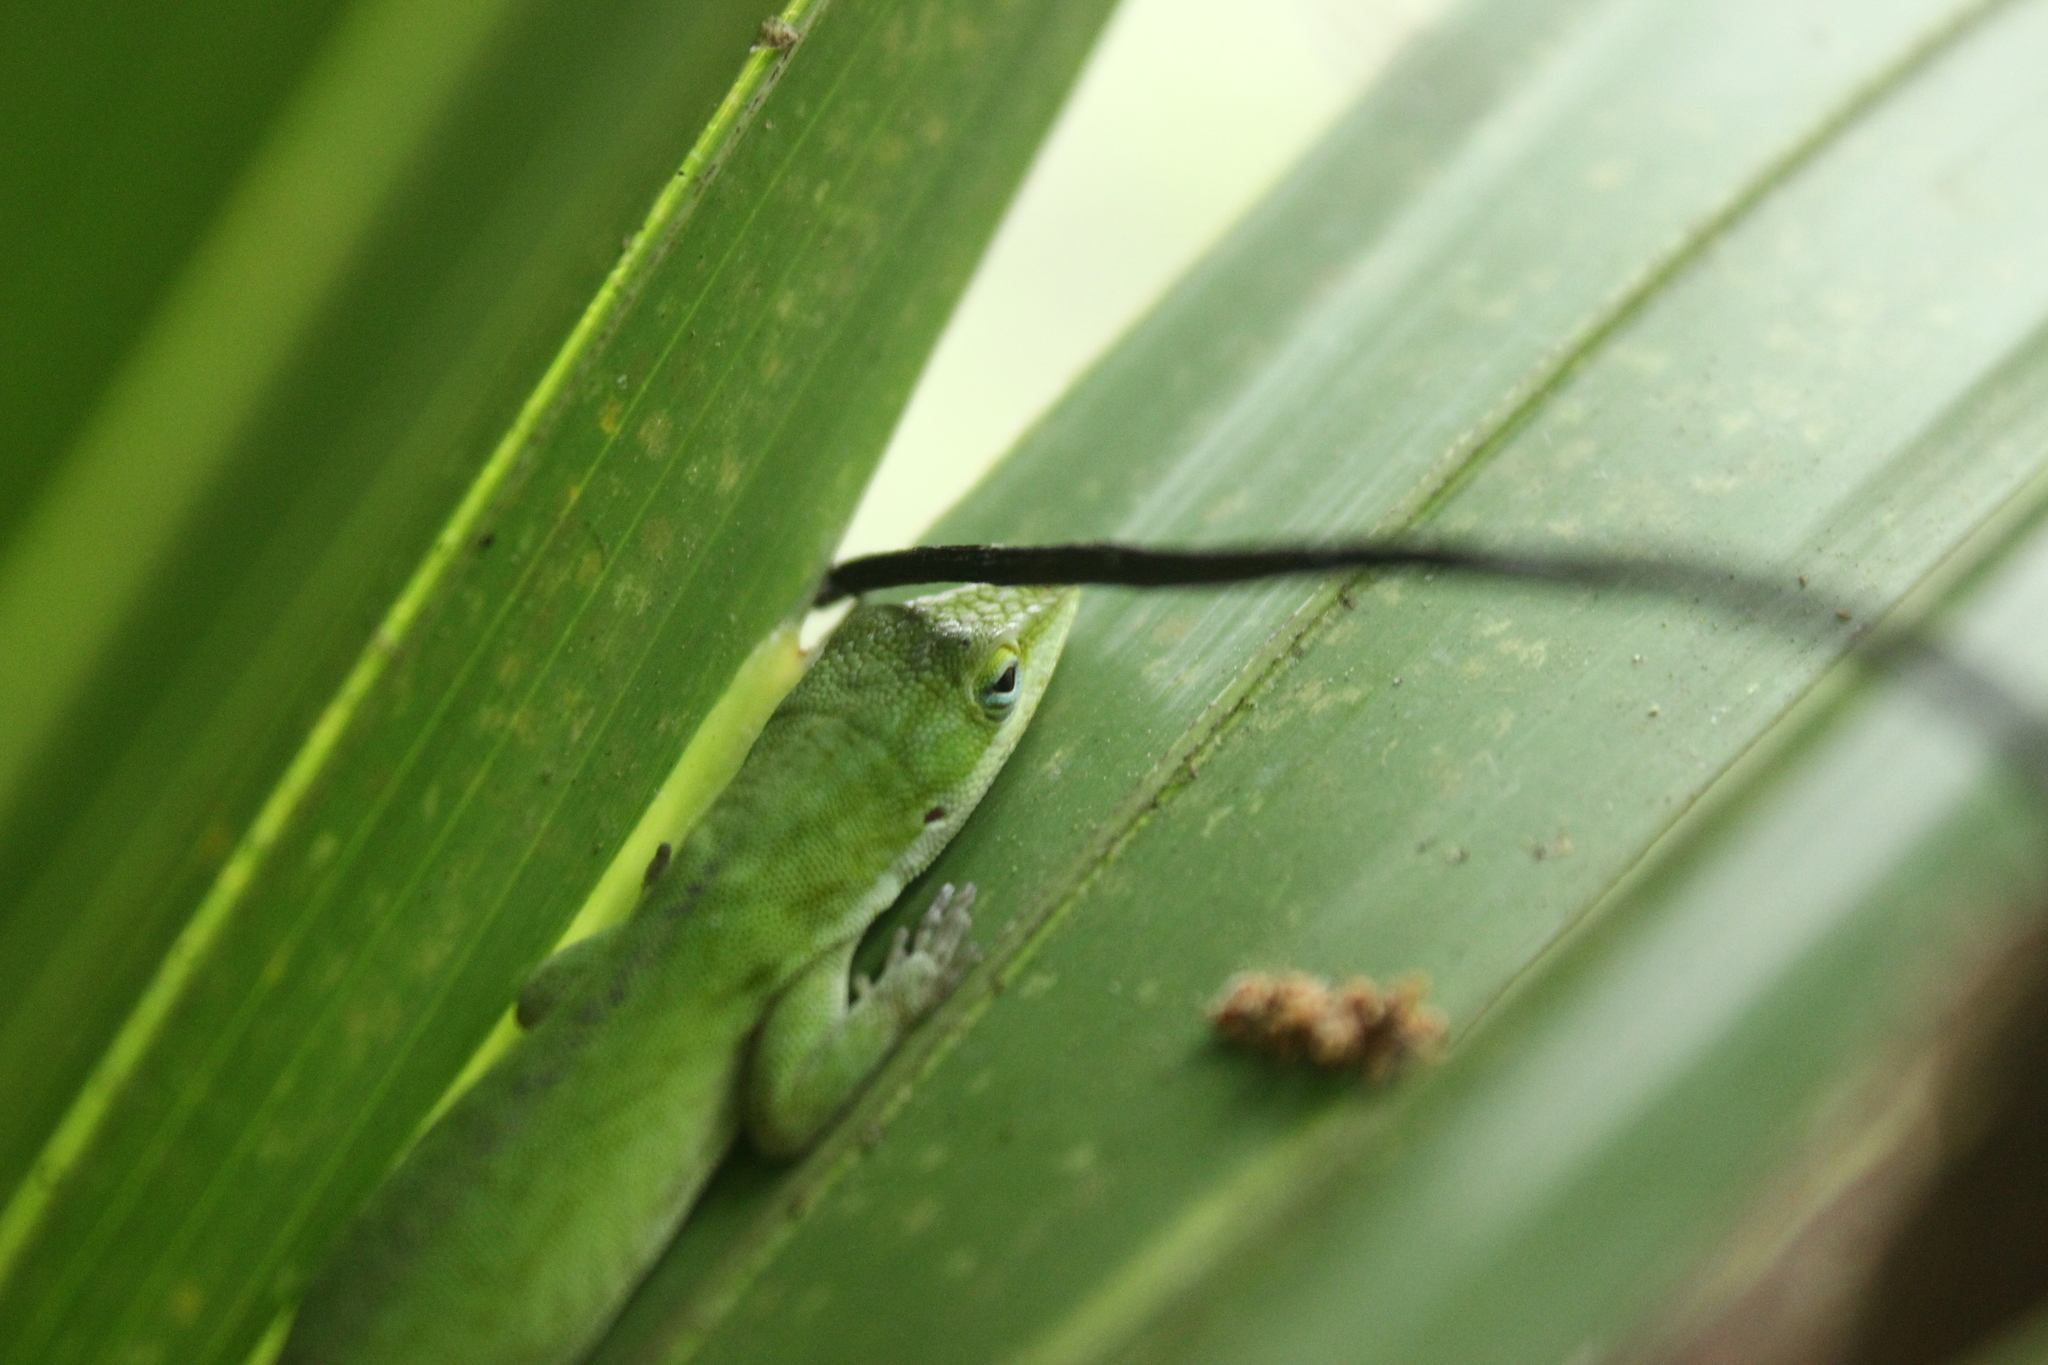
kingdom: Animalia
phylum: Chordata
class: Squamata
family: Dactyloidae
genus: Anolis
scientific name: Anolis carolinensis
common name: Green anole
